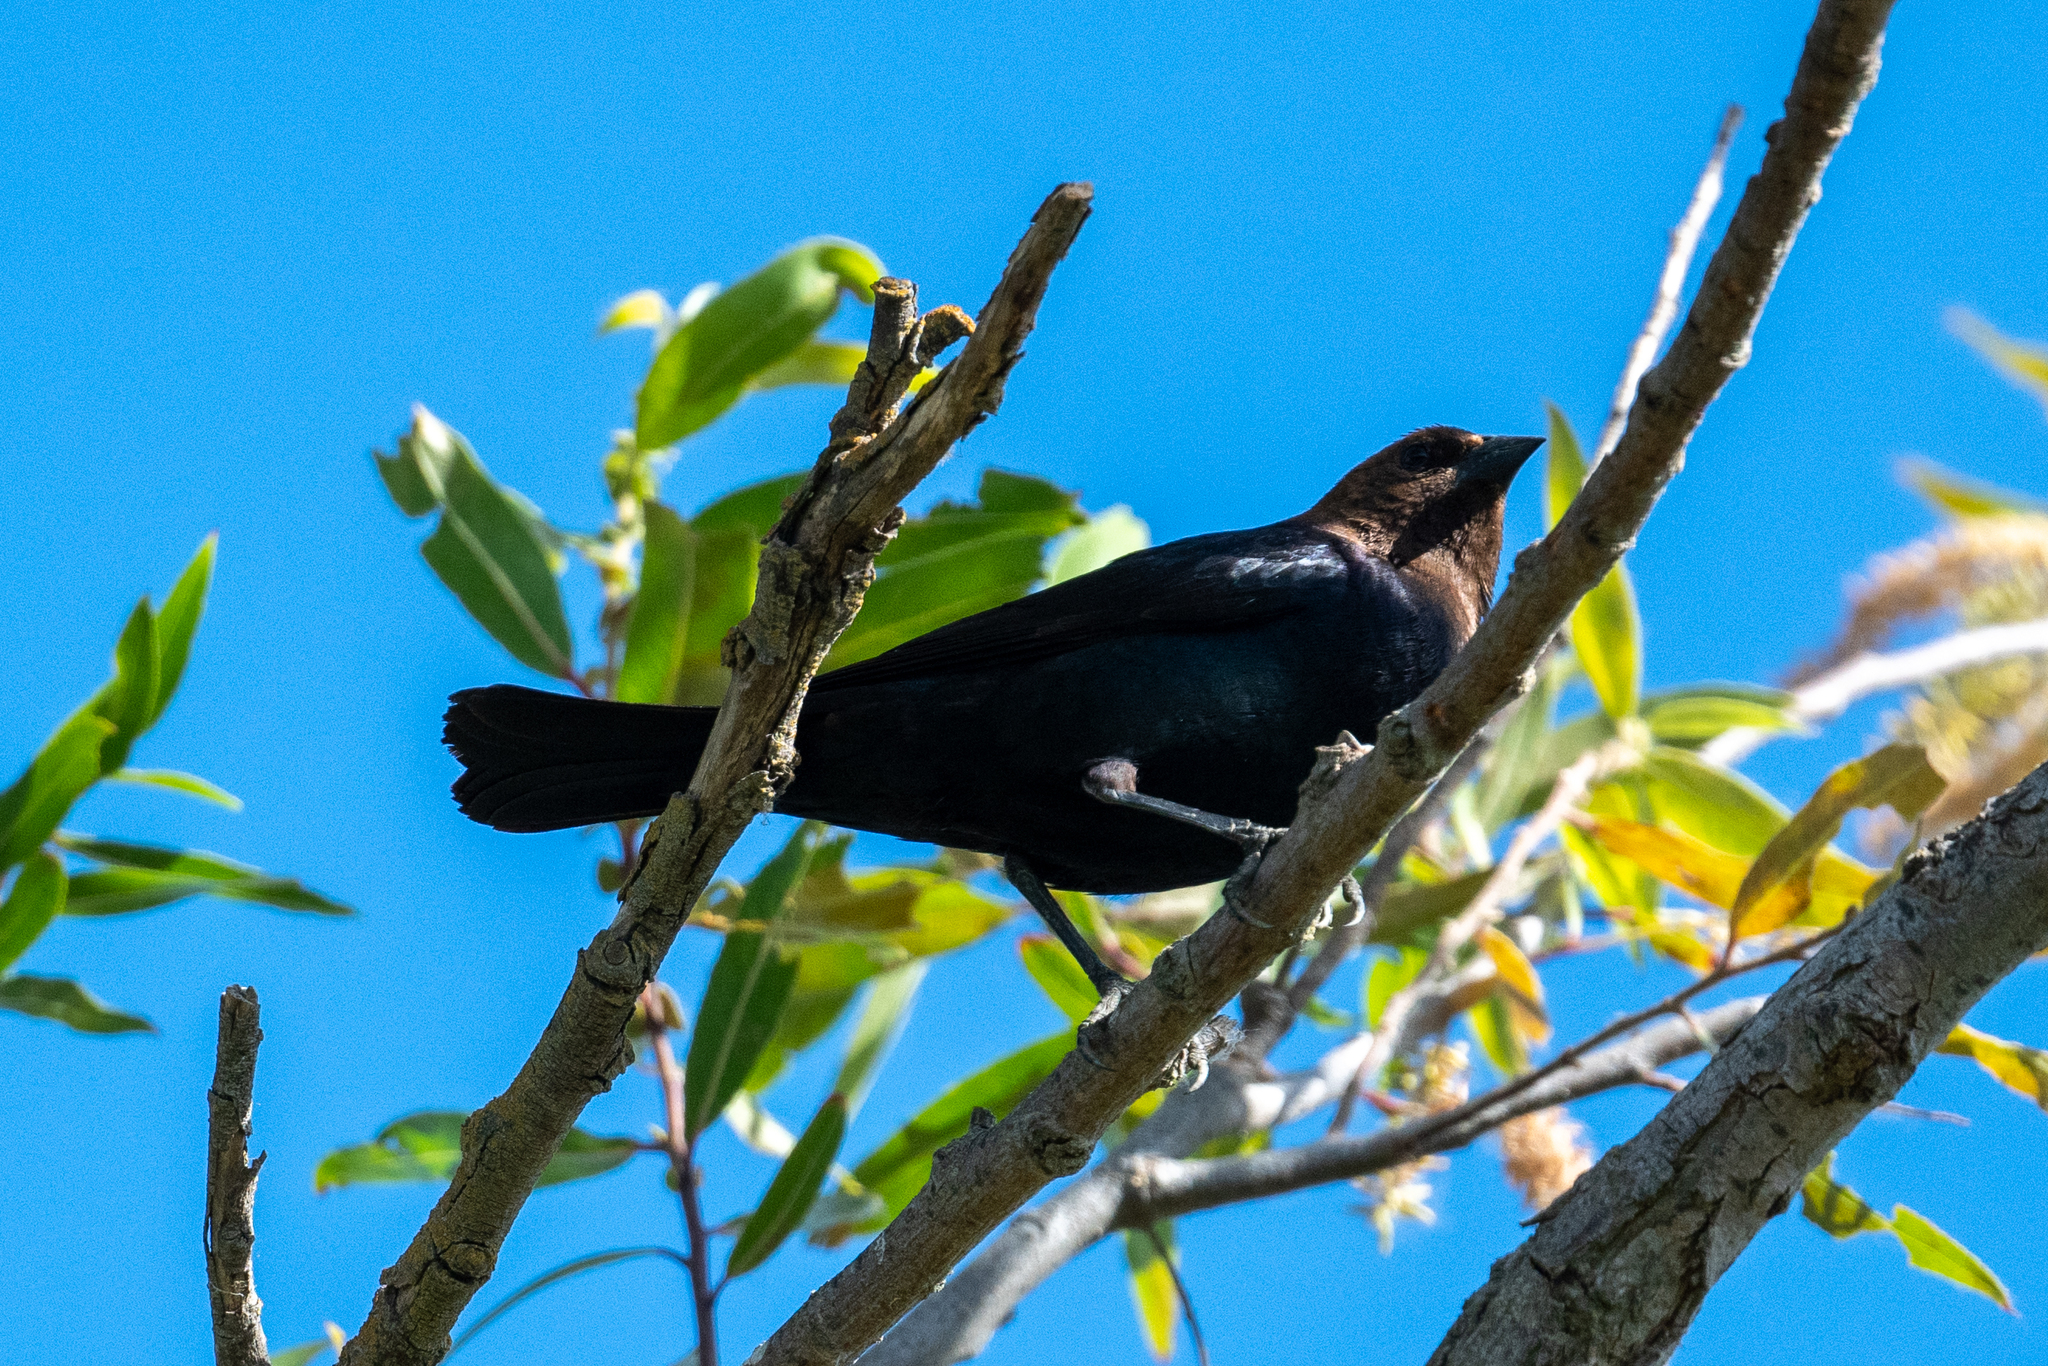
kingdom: Animalia
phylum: Chordata
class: Aves
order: Passeriformes
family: Icteridae
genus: Molothrus
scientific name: Molothrus ater
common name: Brown-headed cowbird
